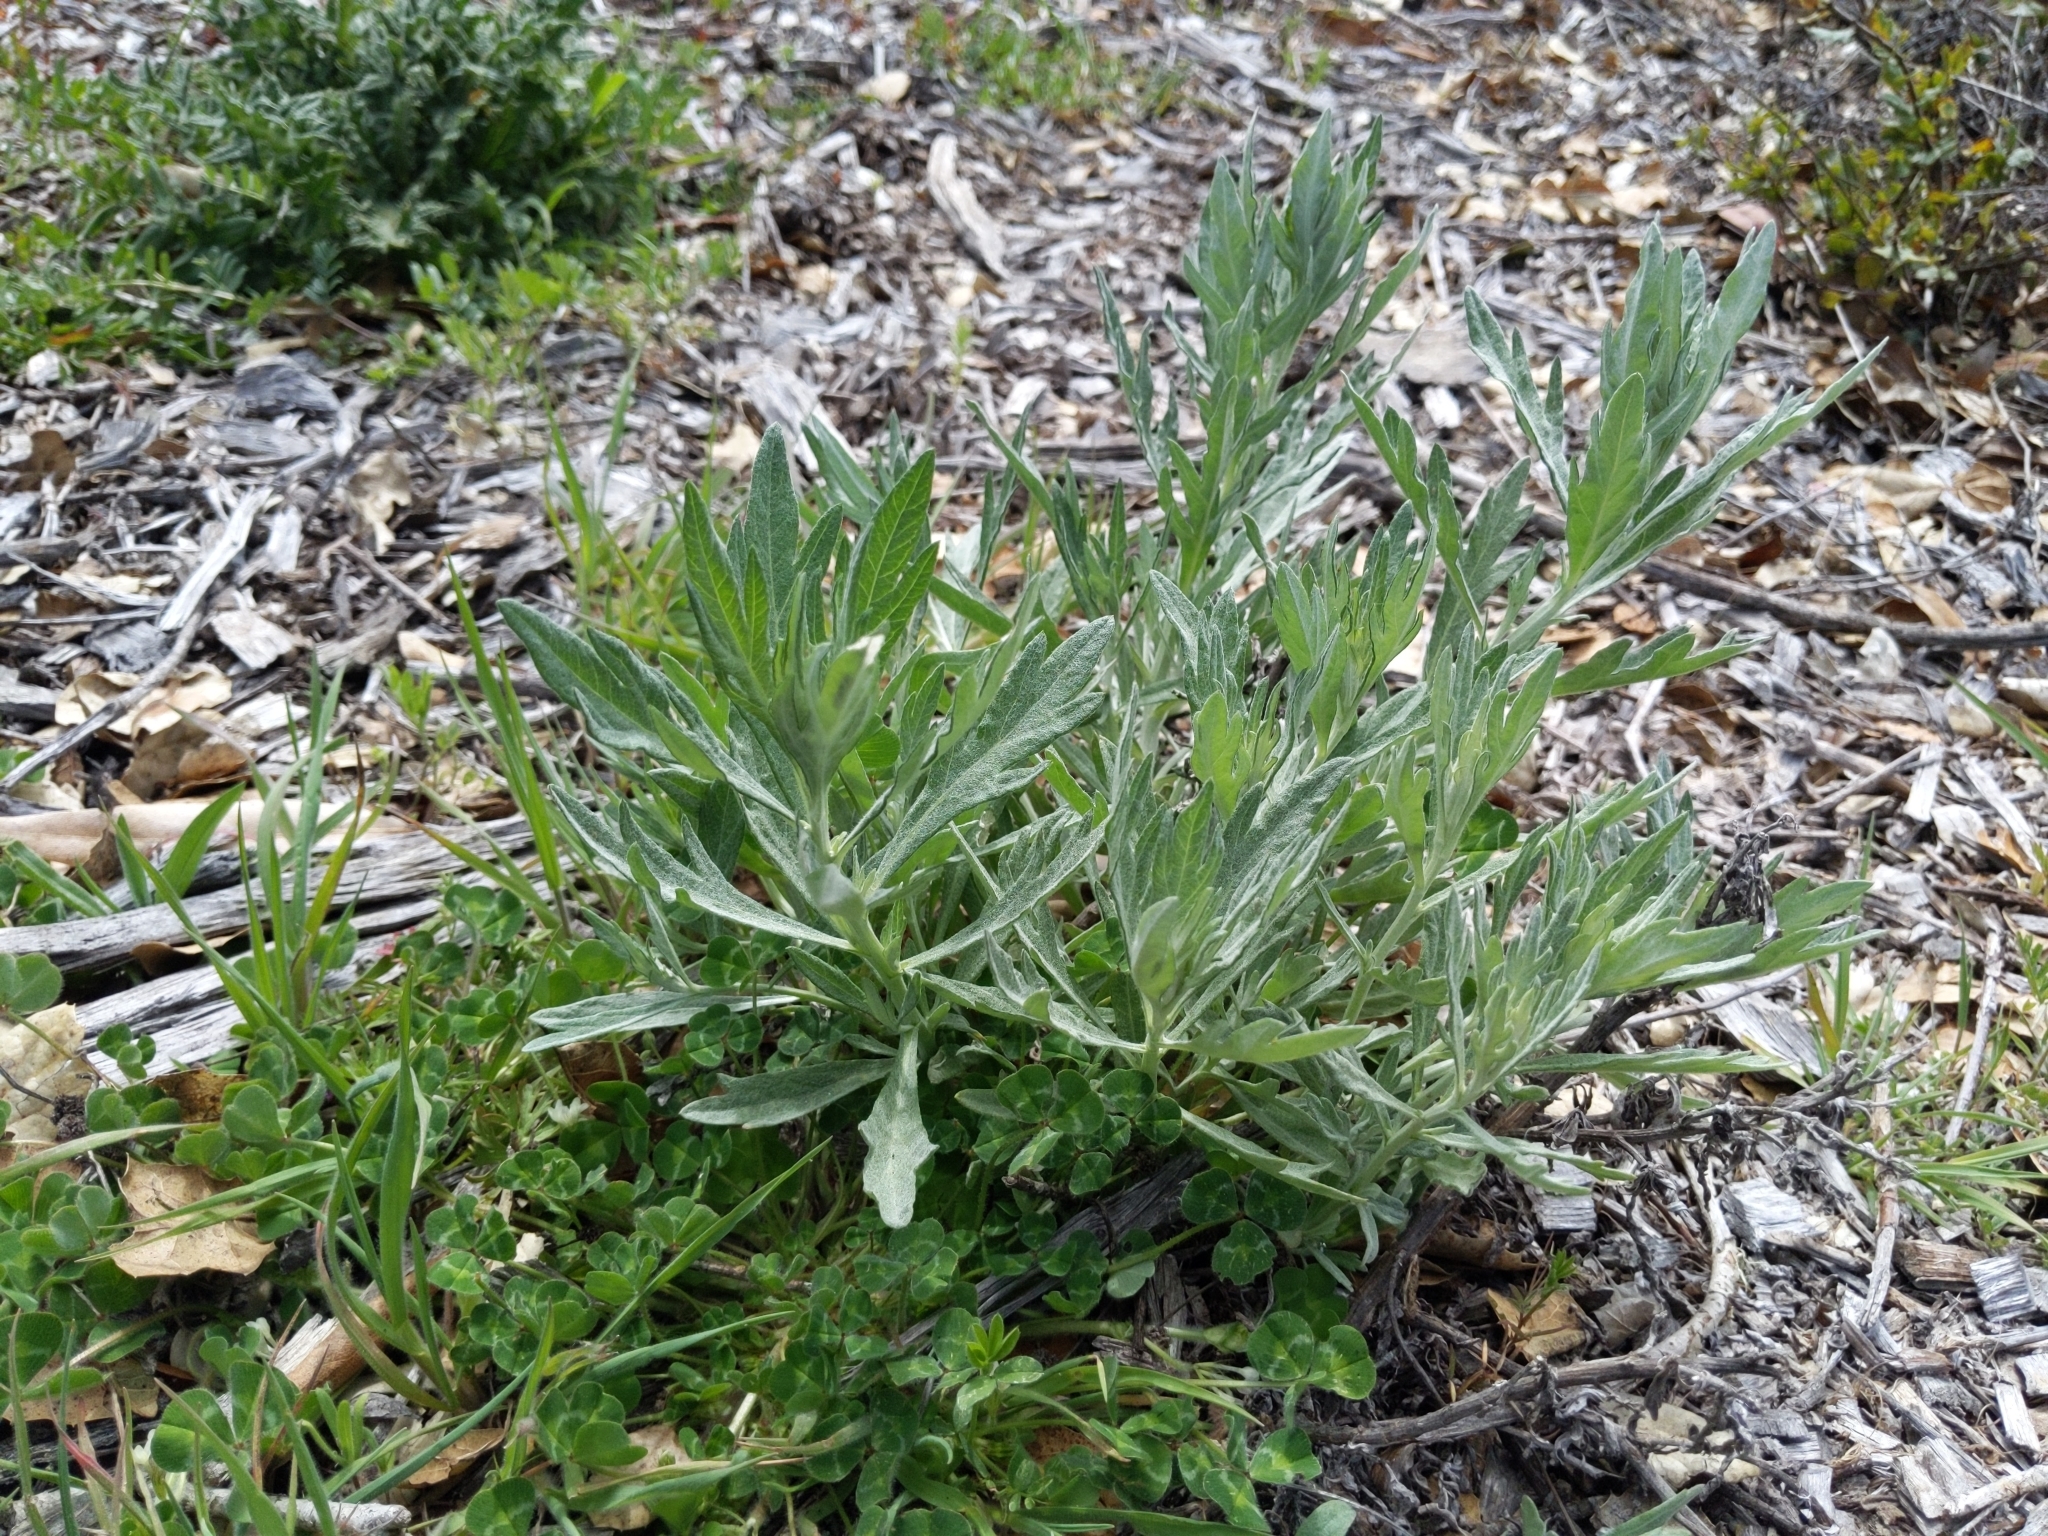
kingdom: Plantae
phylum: Tracheophyta
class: Magnoliopsida
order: Asterales
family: Asteraceae
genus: Artemisia
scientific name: Artemisia douglasiana
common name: Northwest mugwort
